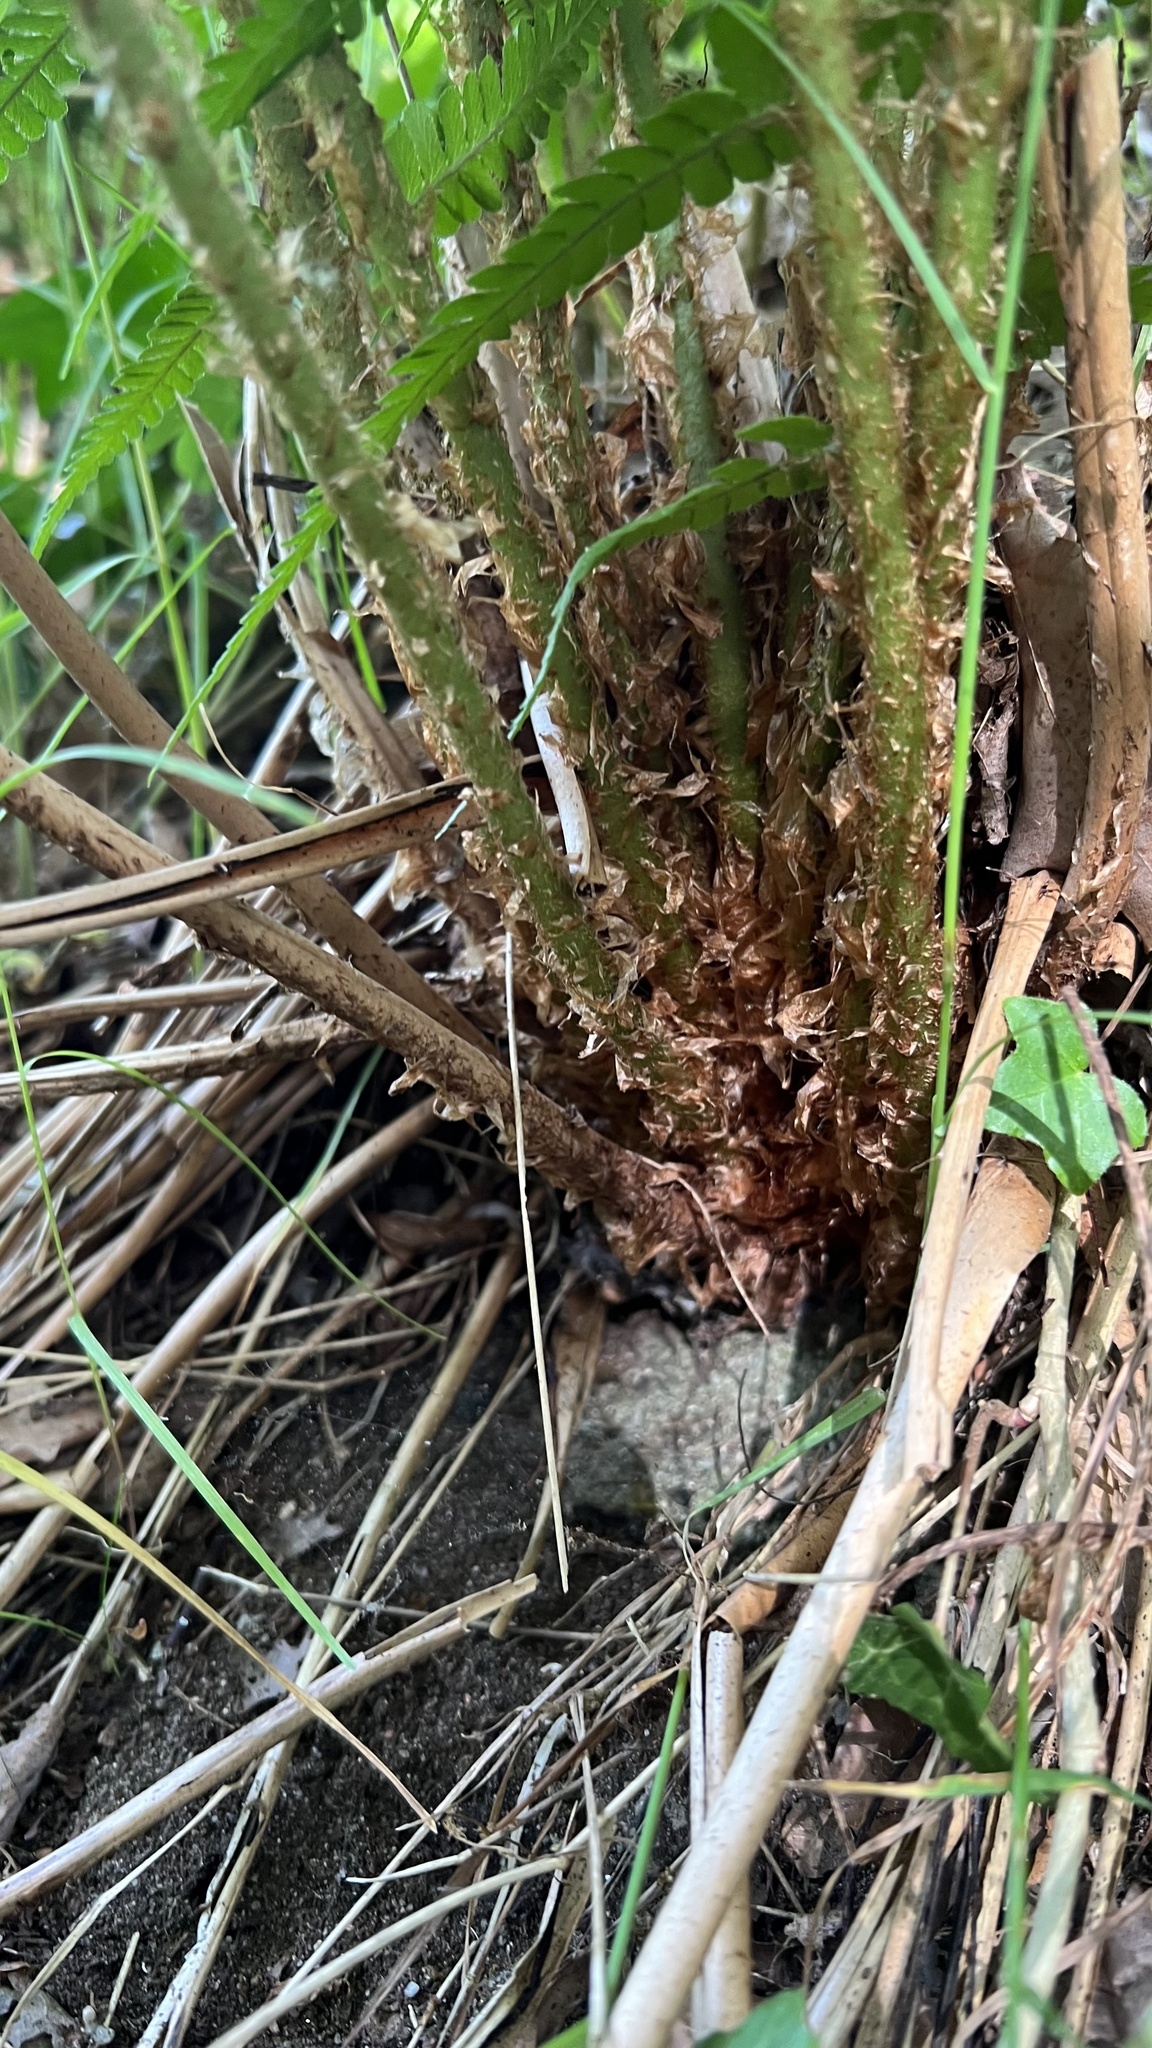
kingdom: Plantae
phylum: Tracheophyta
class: Polypodiopsida
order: Polypodiales
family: Dryopteridaceae
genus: Dryopteris
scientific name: Dryopteris filix-mas
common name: Male fern
